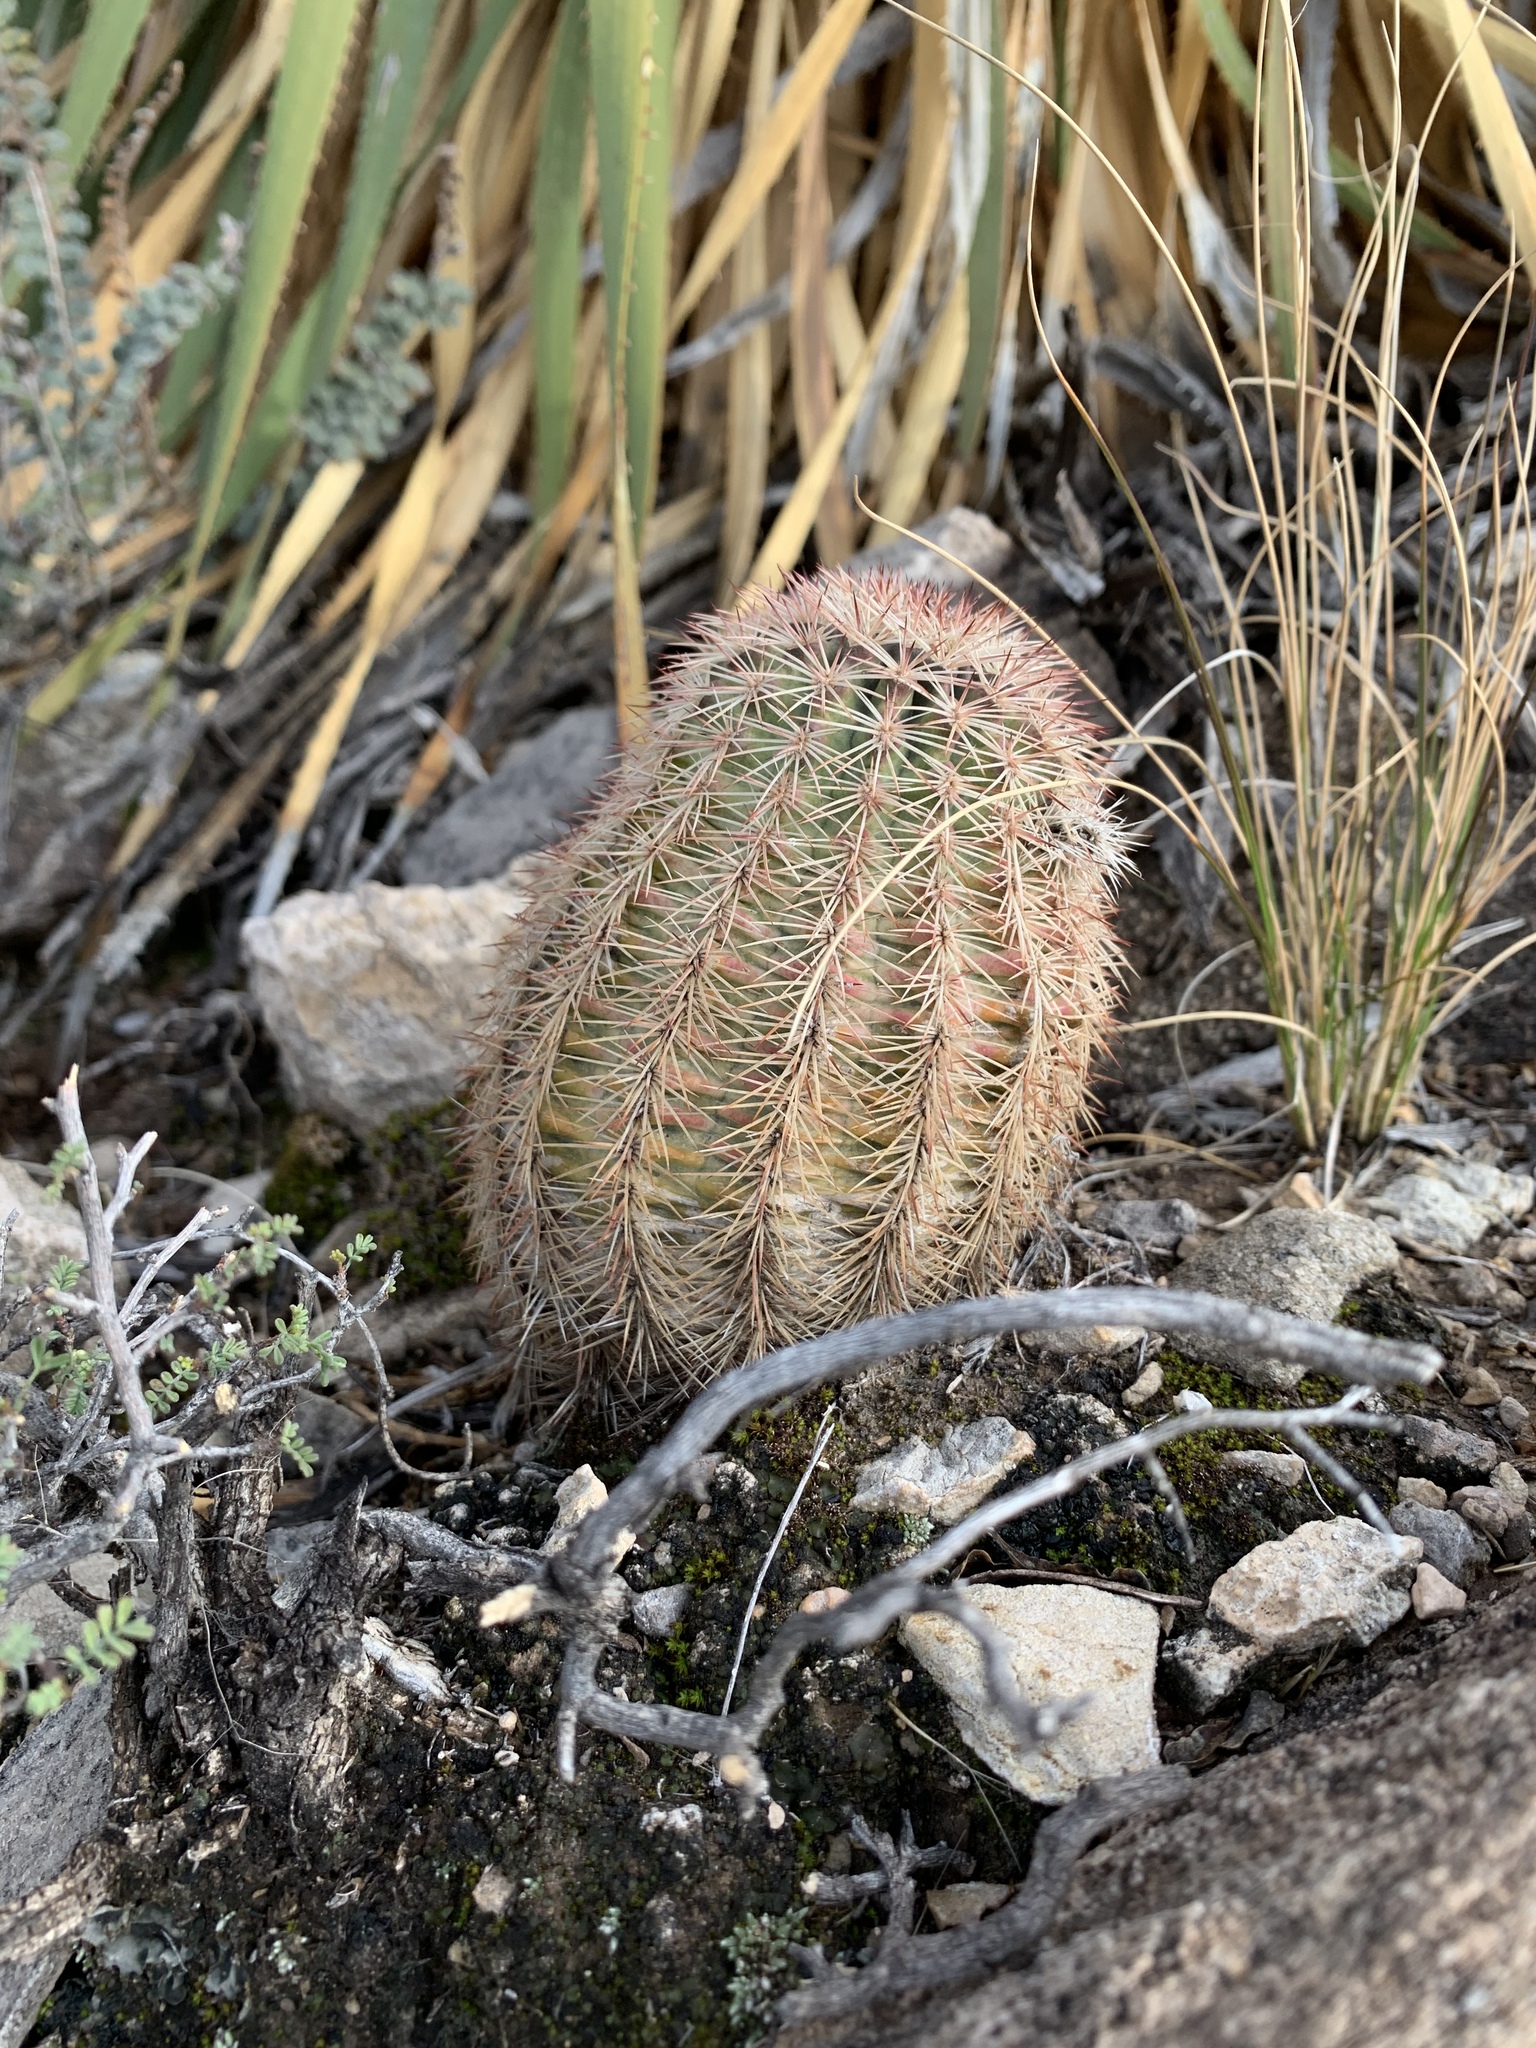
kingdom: Plantae
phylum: Tracheophyta
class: Magnoliopsida
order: Caryophyllales
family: Cactaceae
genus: Echinocereus
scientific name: Echinocereus dasyacanthus
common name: Spiny hedgehog cactus
